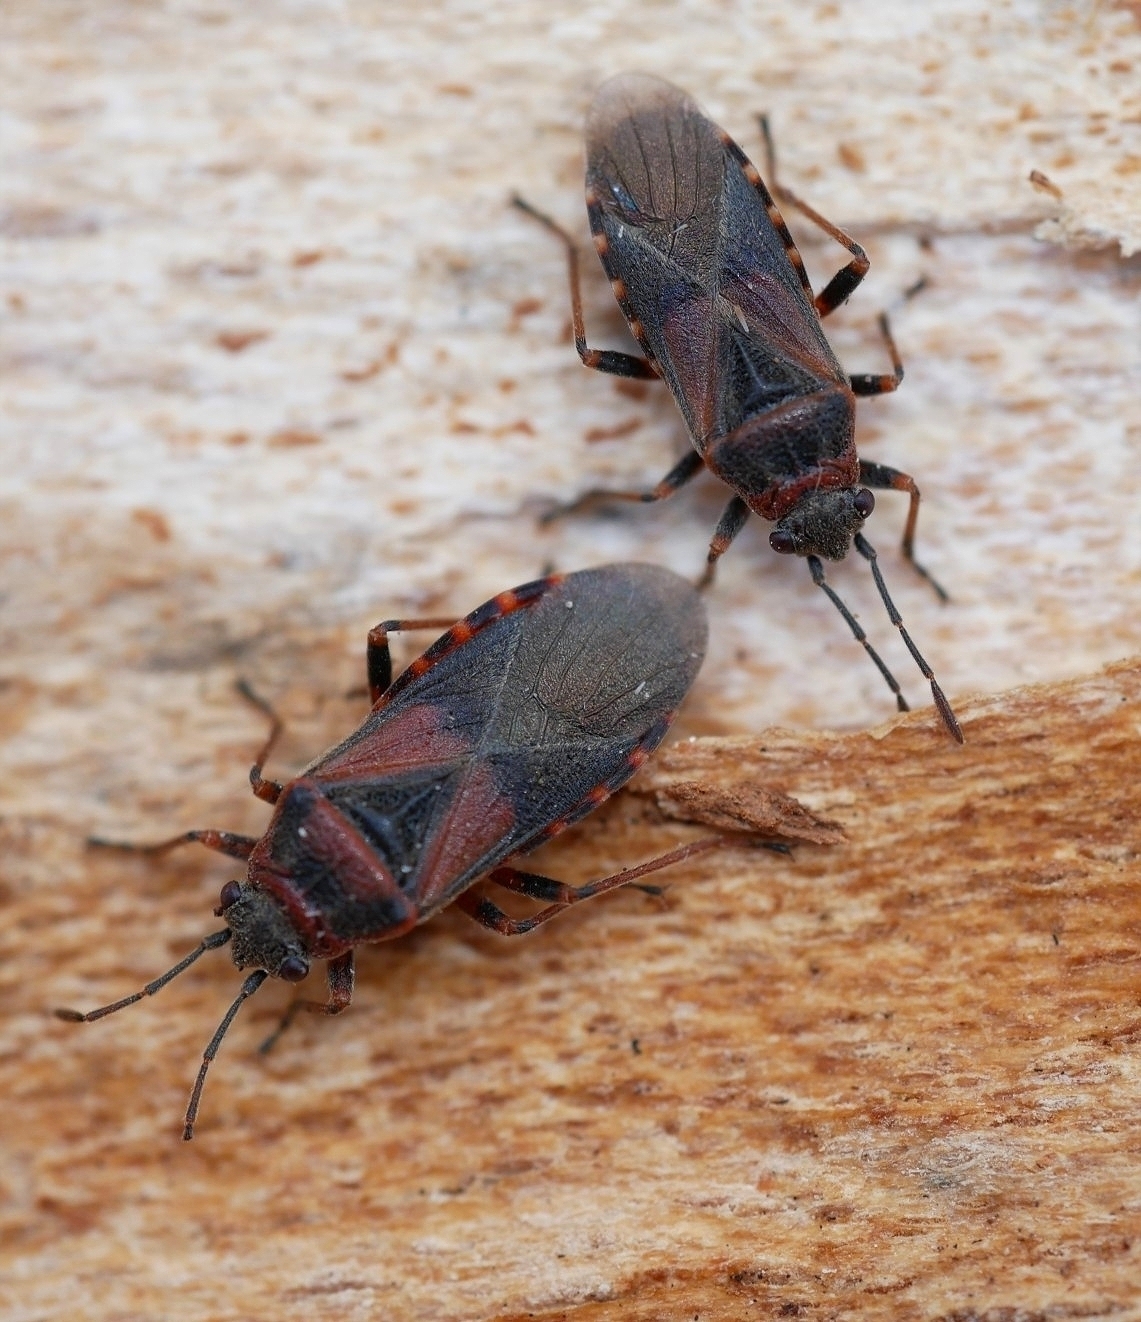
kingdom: Animalia
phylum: Arthropoda
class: Insecta
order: Hemiptera
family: Lygaeidae
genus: Arocatus
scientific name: Arocatus melanocephalus
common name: Lygaeid bug
